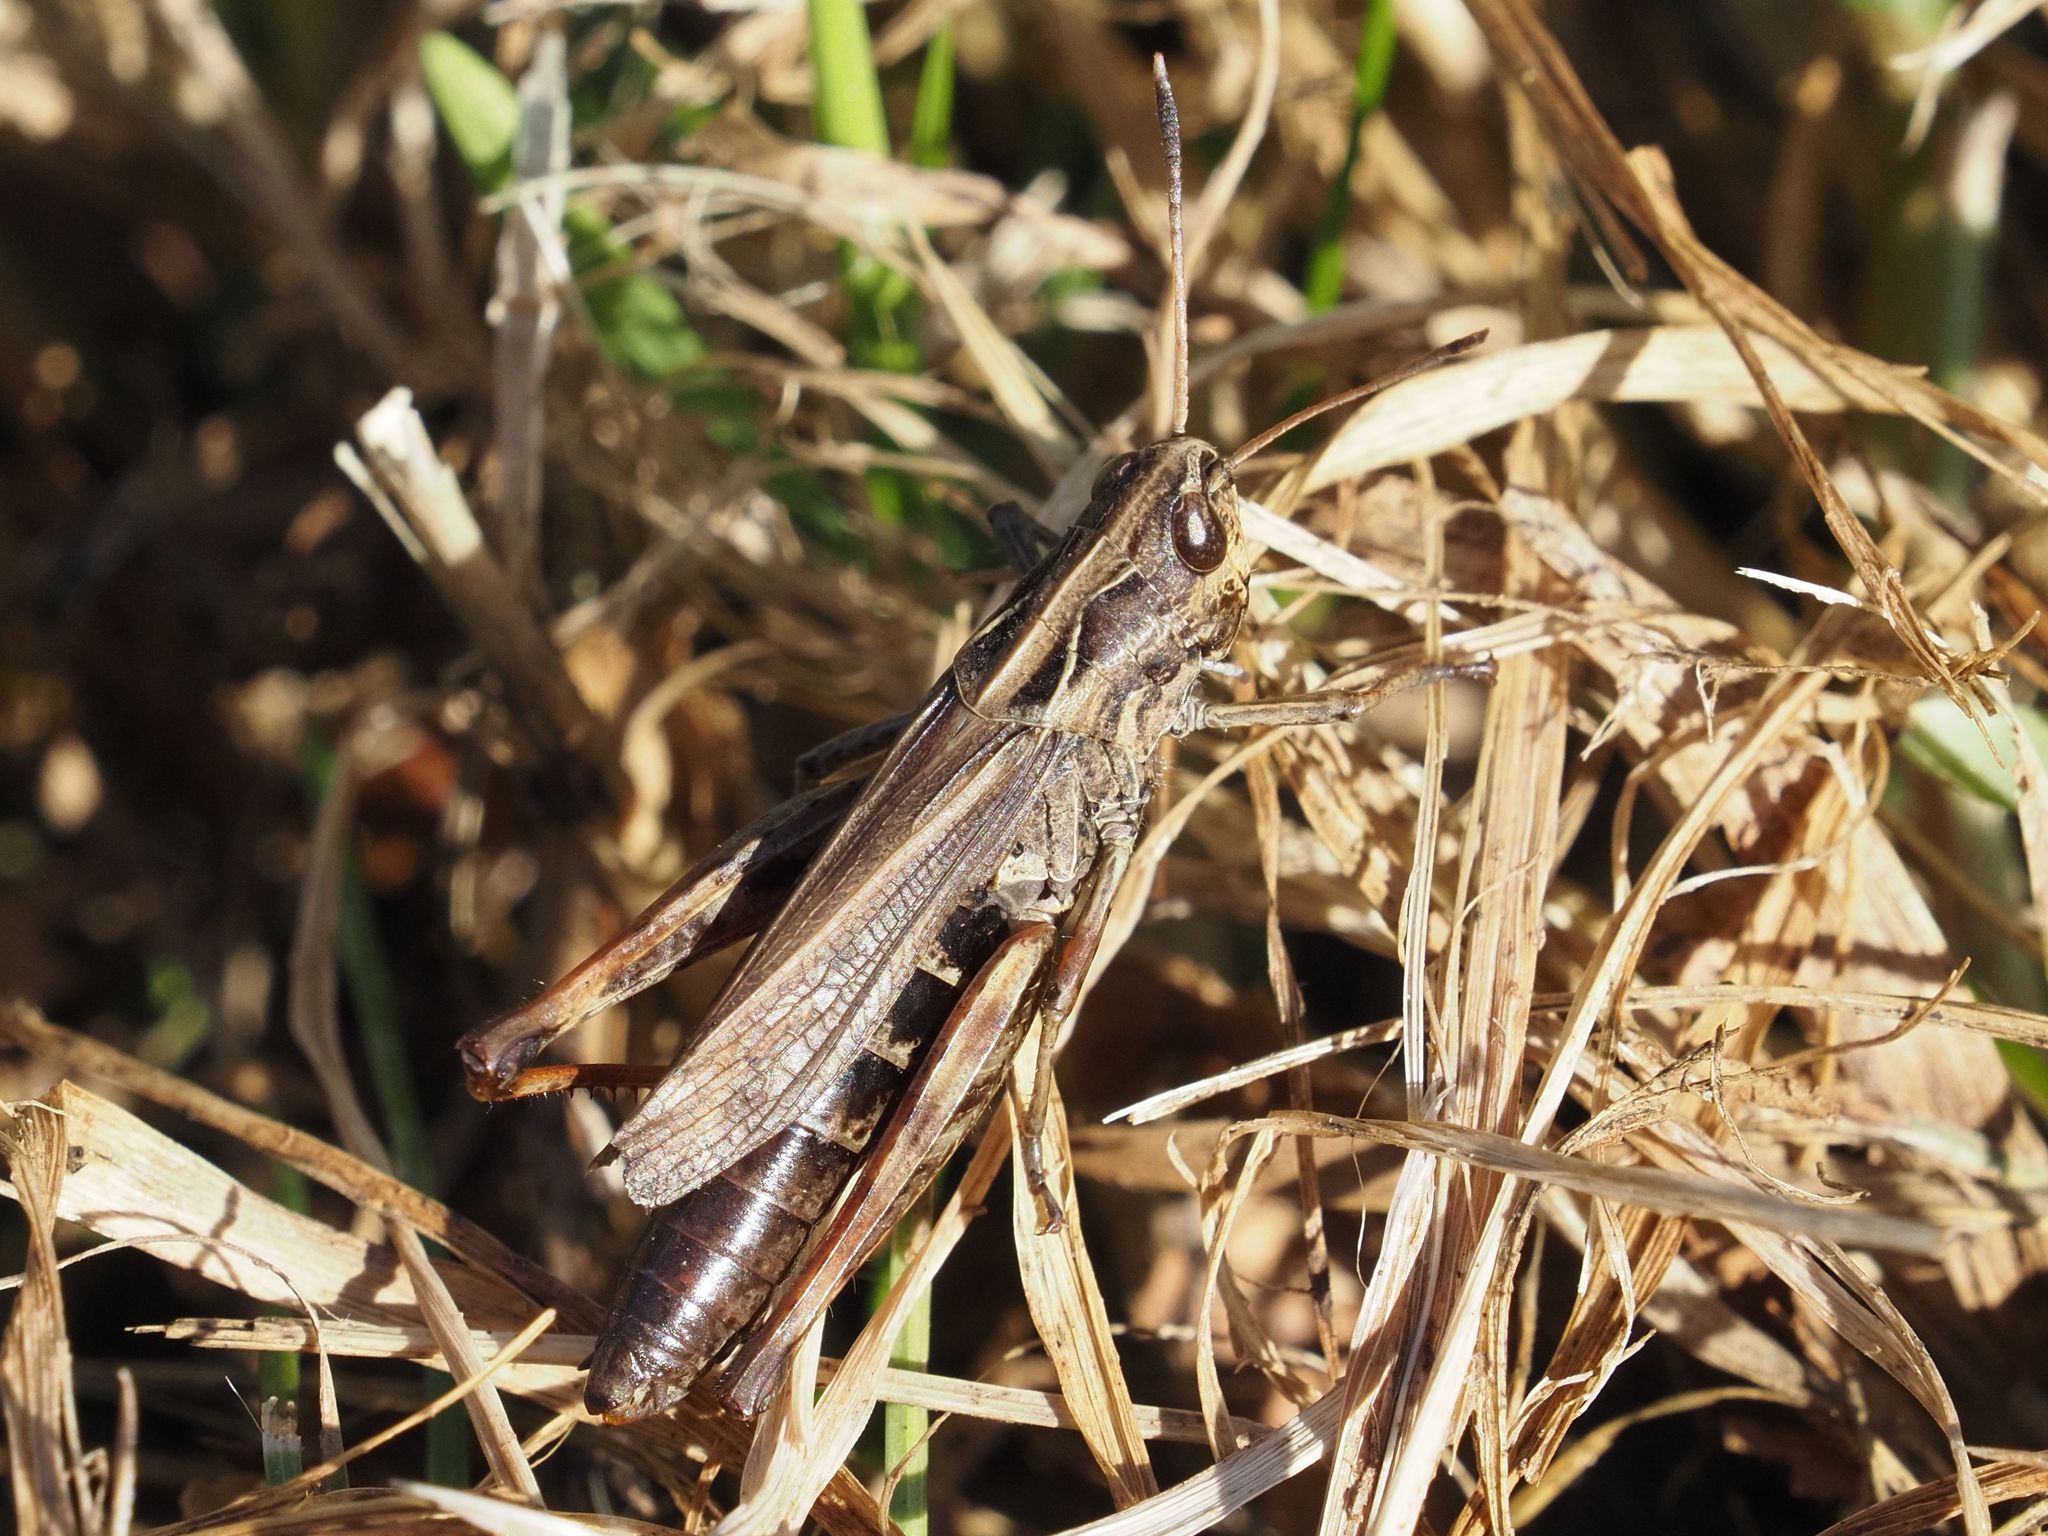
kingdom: Animalia
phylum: Arthropoda
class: Insecta
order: Orthoptera
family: Acrididae
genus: Gomphocerippus
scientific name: Gomphocerippus rufus
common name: Rufous grasshopper
